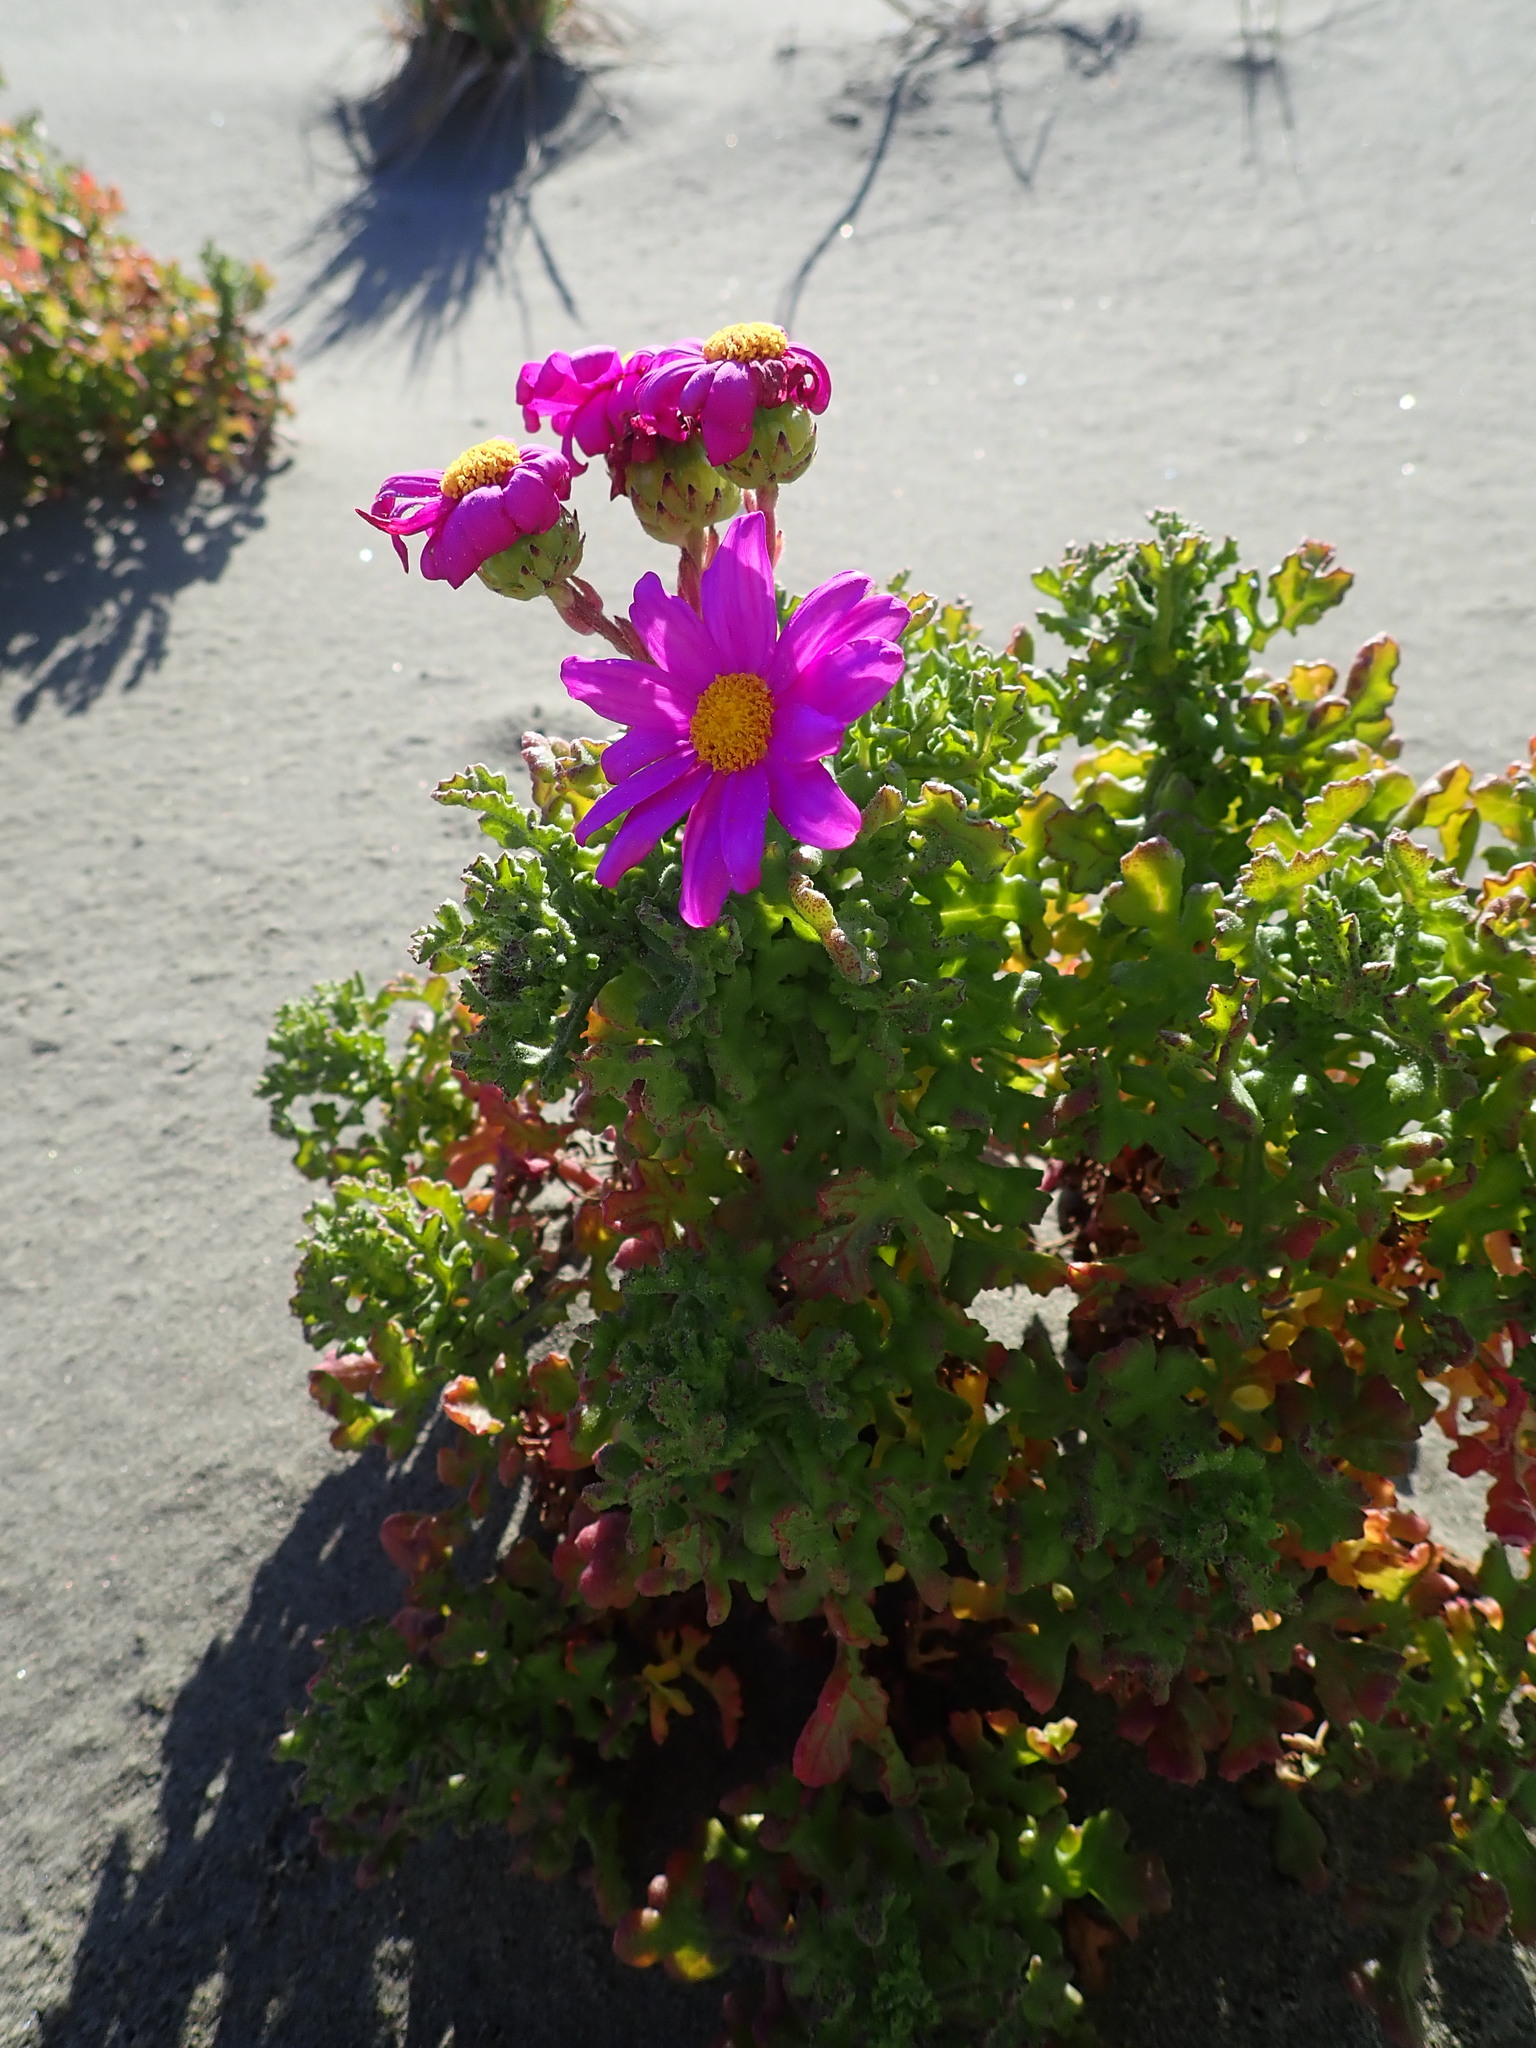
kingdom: Plantae
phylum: Tracheophyta
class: Magnoliopsida
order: Asterales
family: Asteraceae
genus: Senecio
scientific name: Senecio elegans
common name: Purple groundsel
